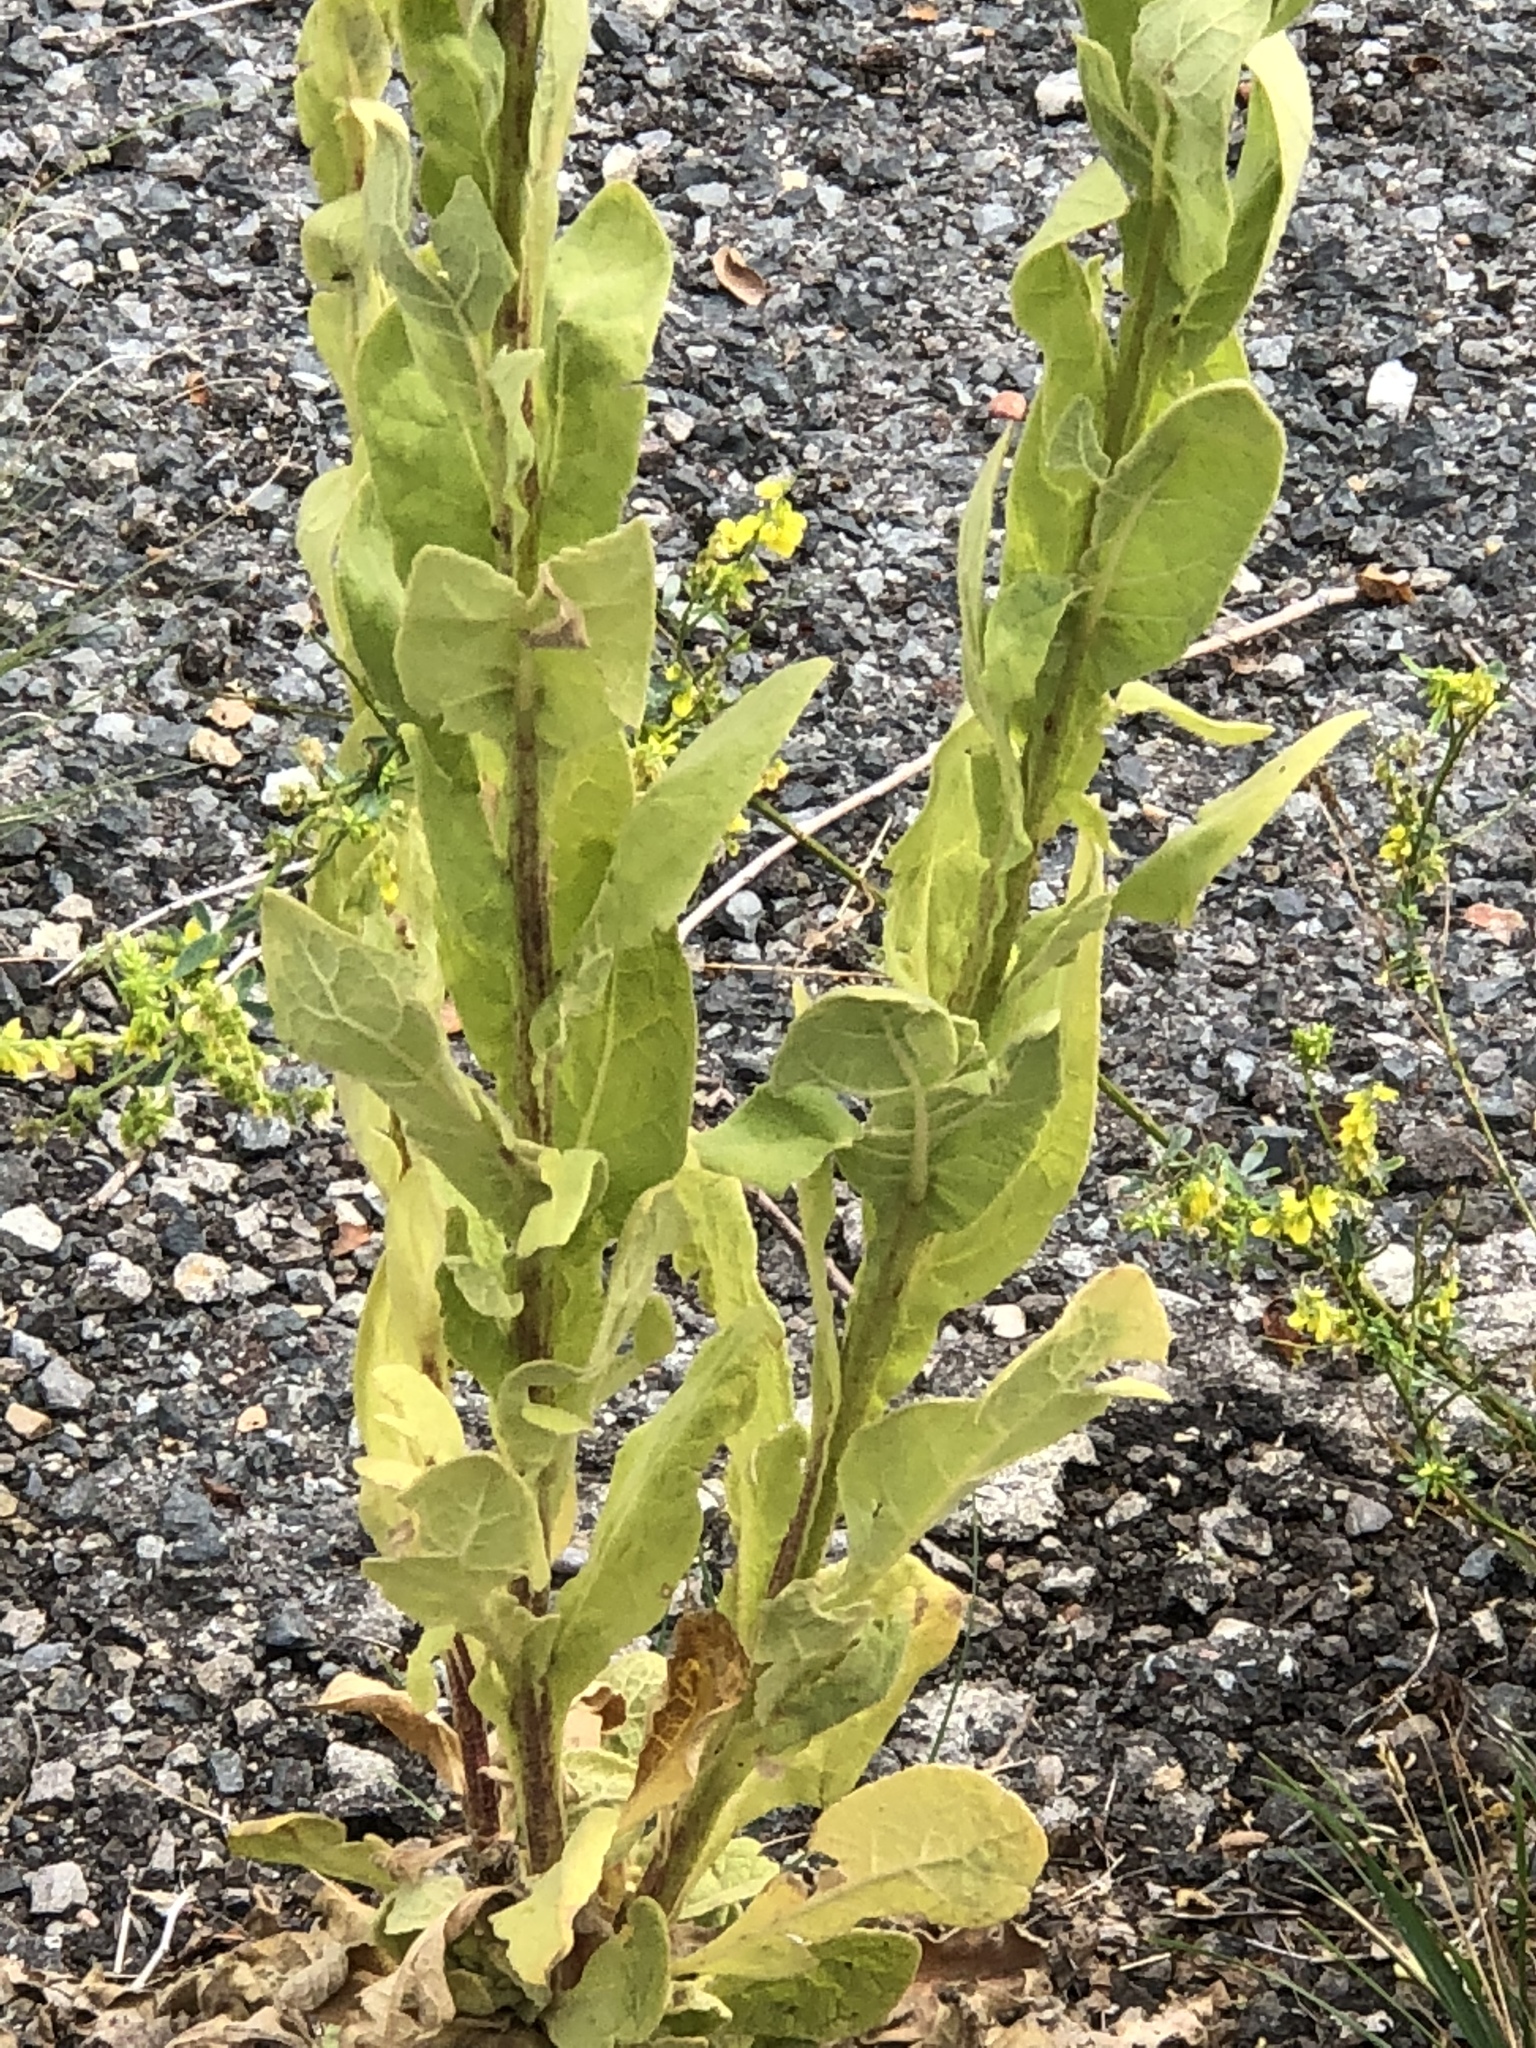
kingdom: Plantae
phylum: Tracheophyta
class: Magnoliopsida
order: Lamiales
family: Scrophulariaceae
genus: Verbascum
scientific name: Verbascum thapsus
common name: Common mullein
